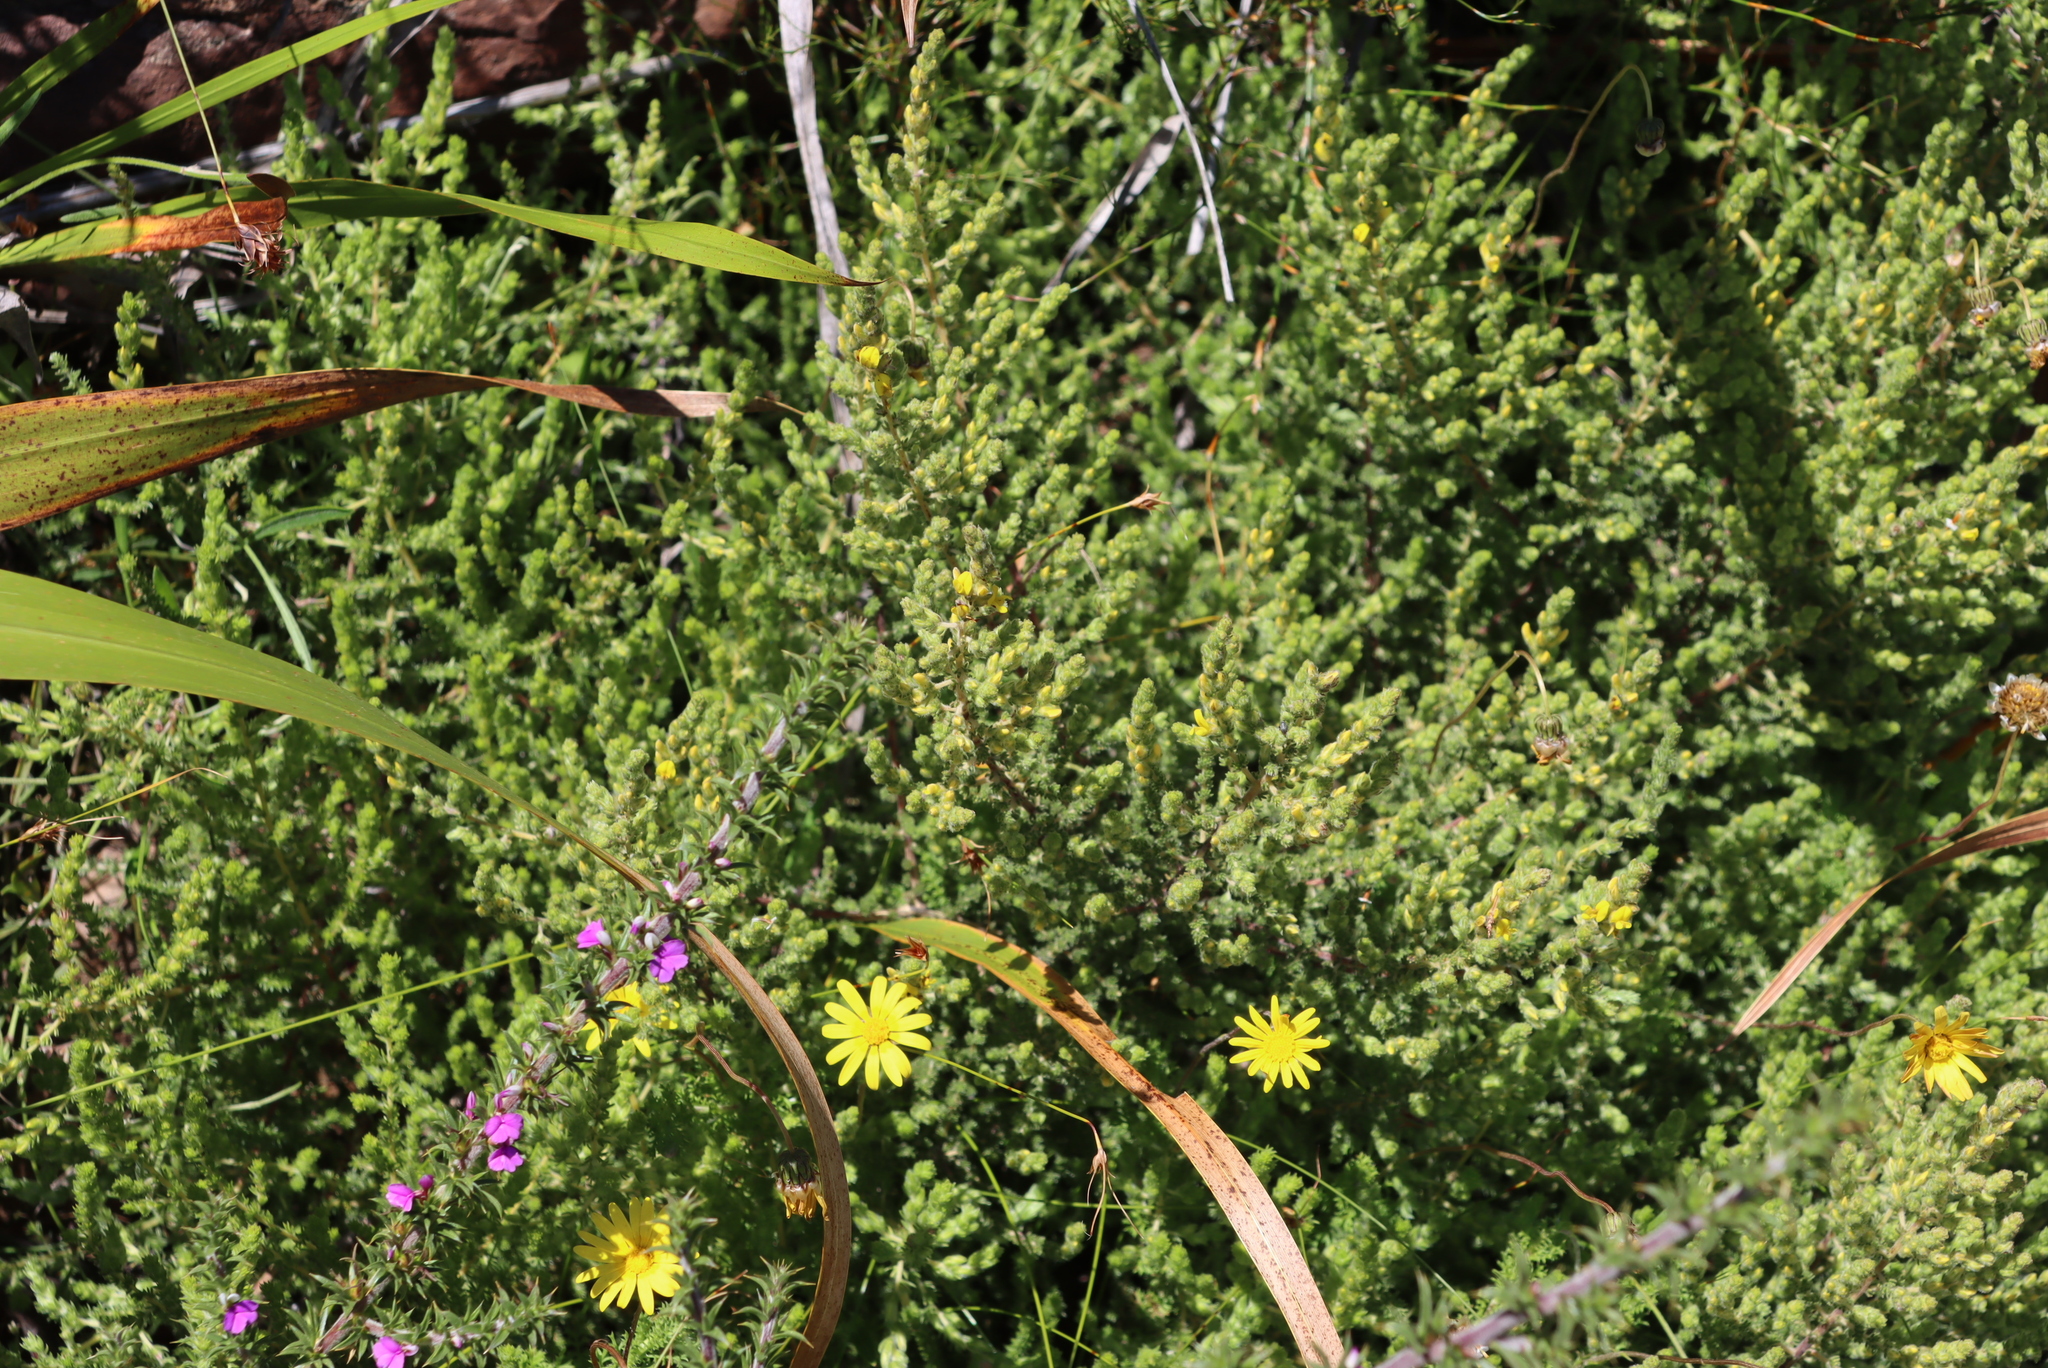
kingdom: Plantae
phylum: Tracheophyta
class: Magnoliopsida
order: Fabales
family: Fabaceae
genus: Aspalathus
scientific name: Aspalathus ericifolia
